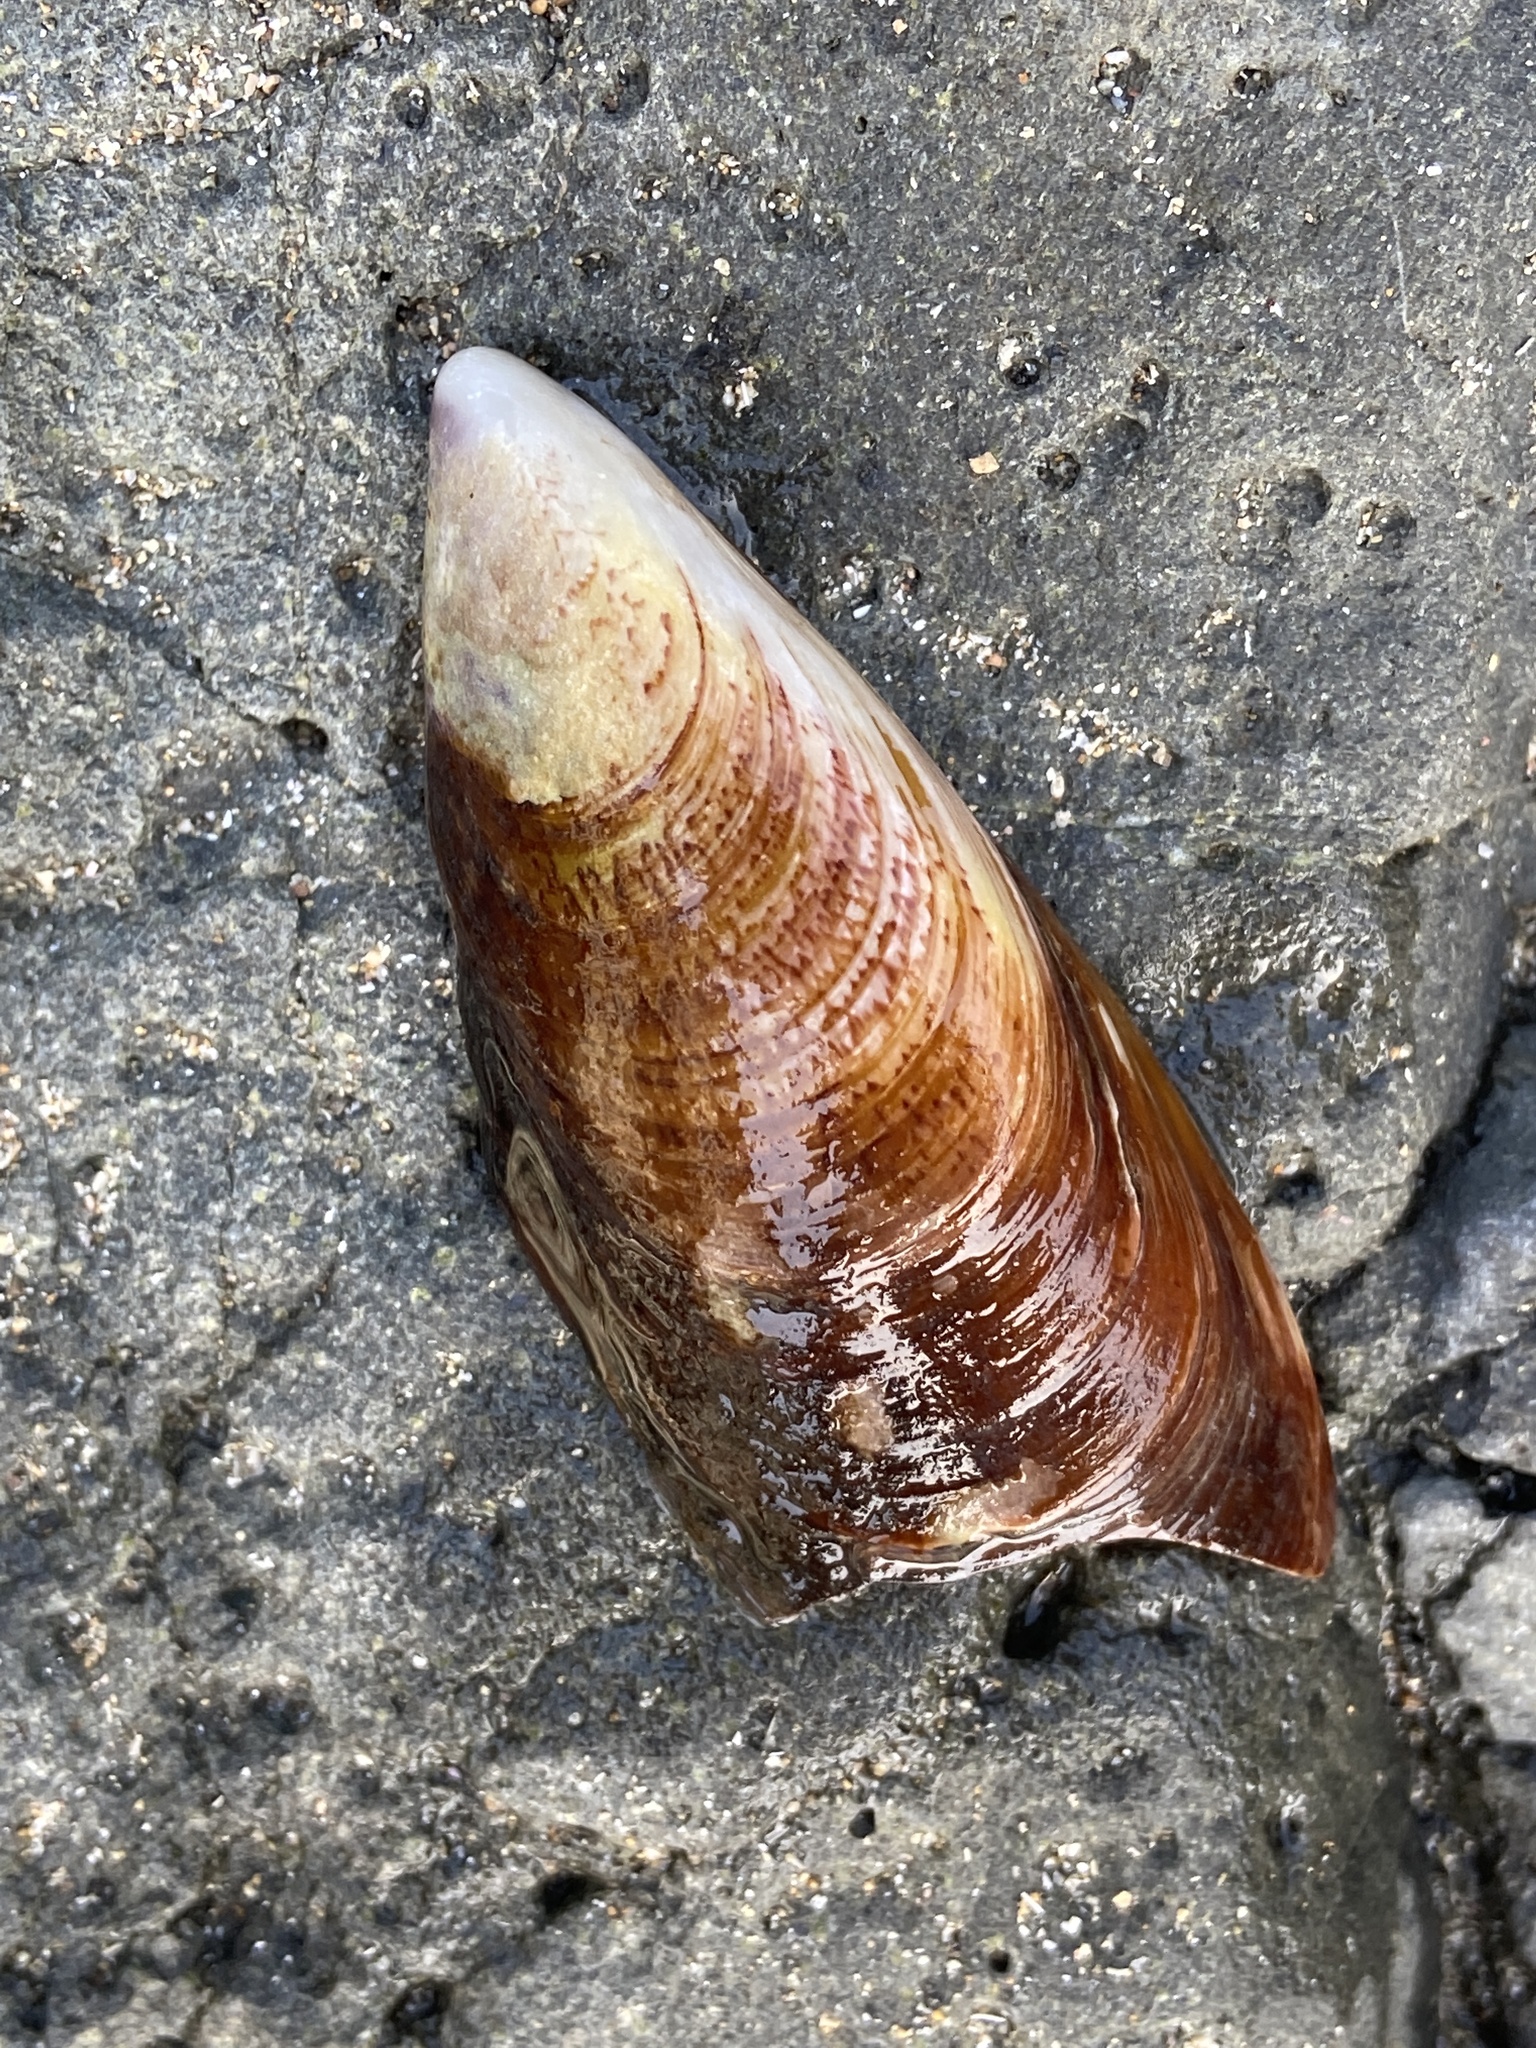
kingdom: Animalia
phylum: Mollusca
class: Bivalvia
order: Mytilida
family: Mytilidae
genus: Perna
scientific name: Perna perna
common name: Mexilhao mussel
